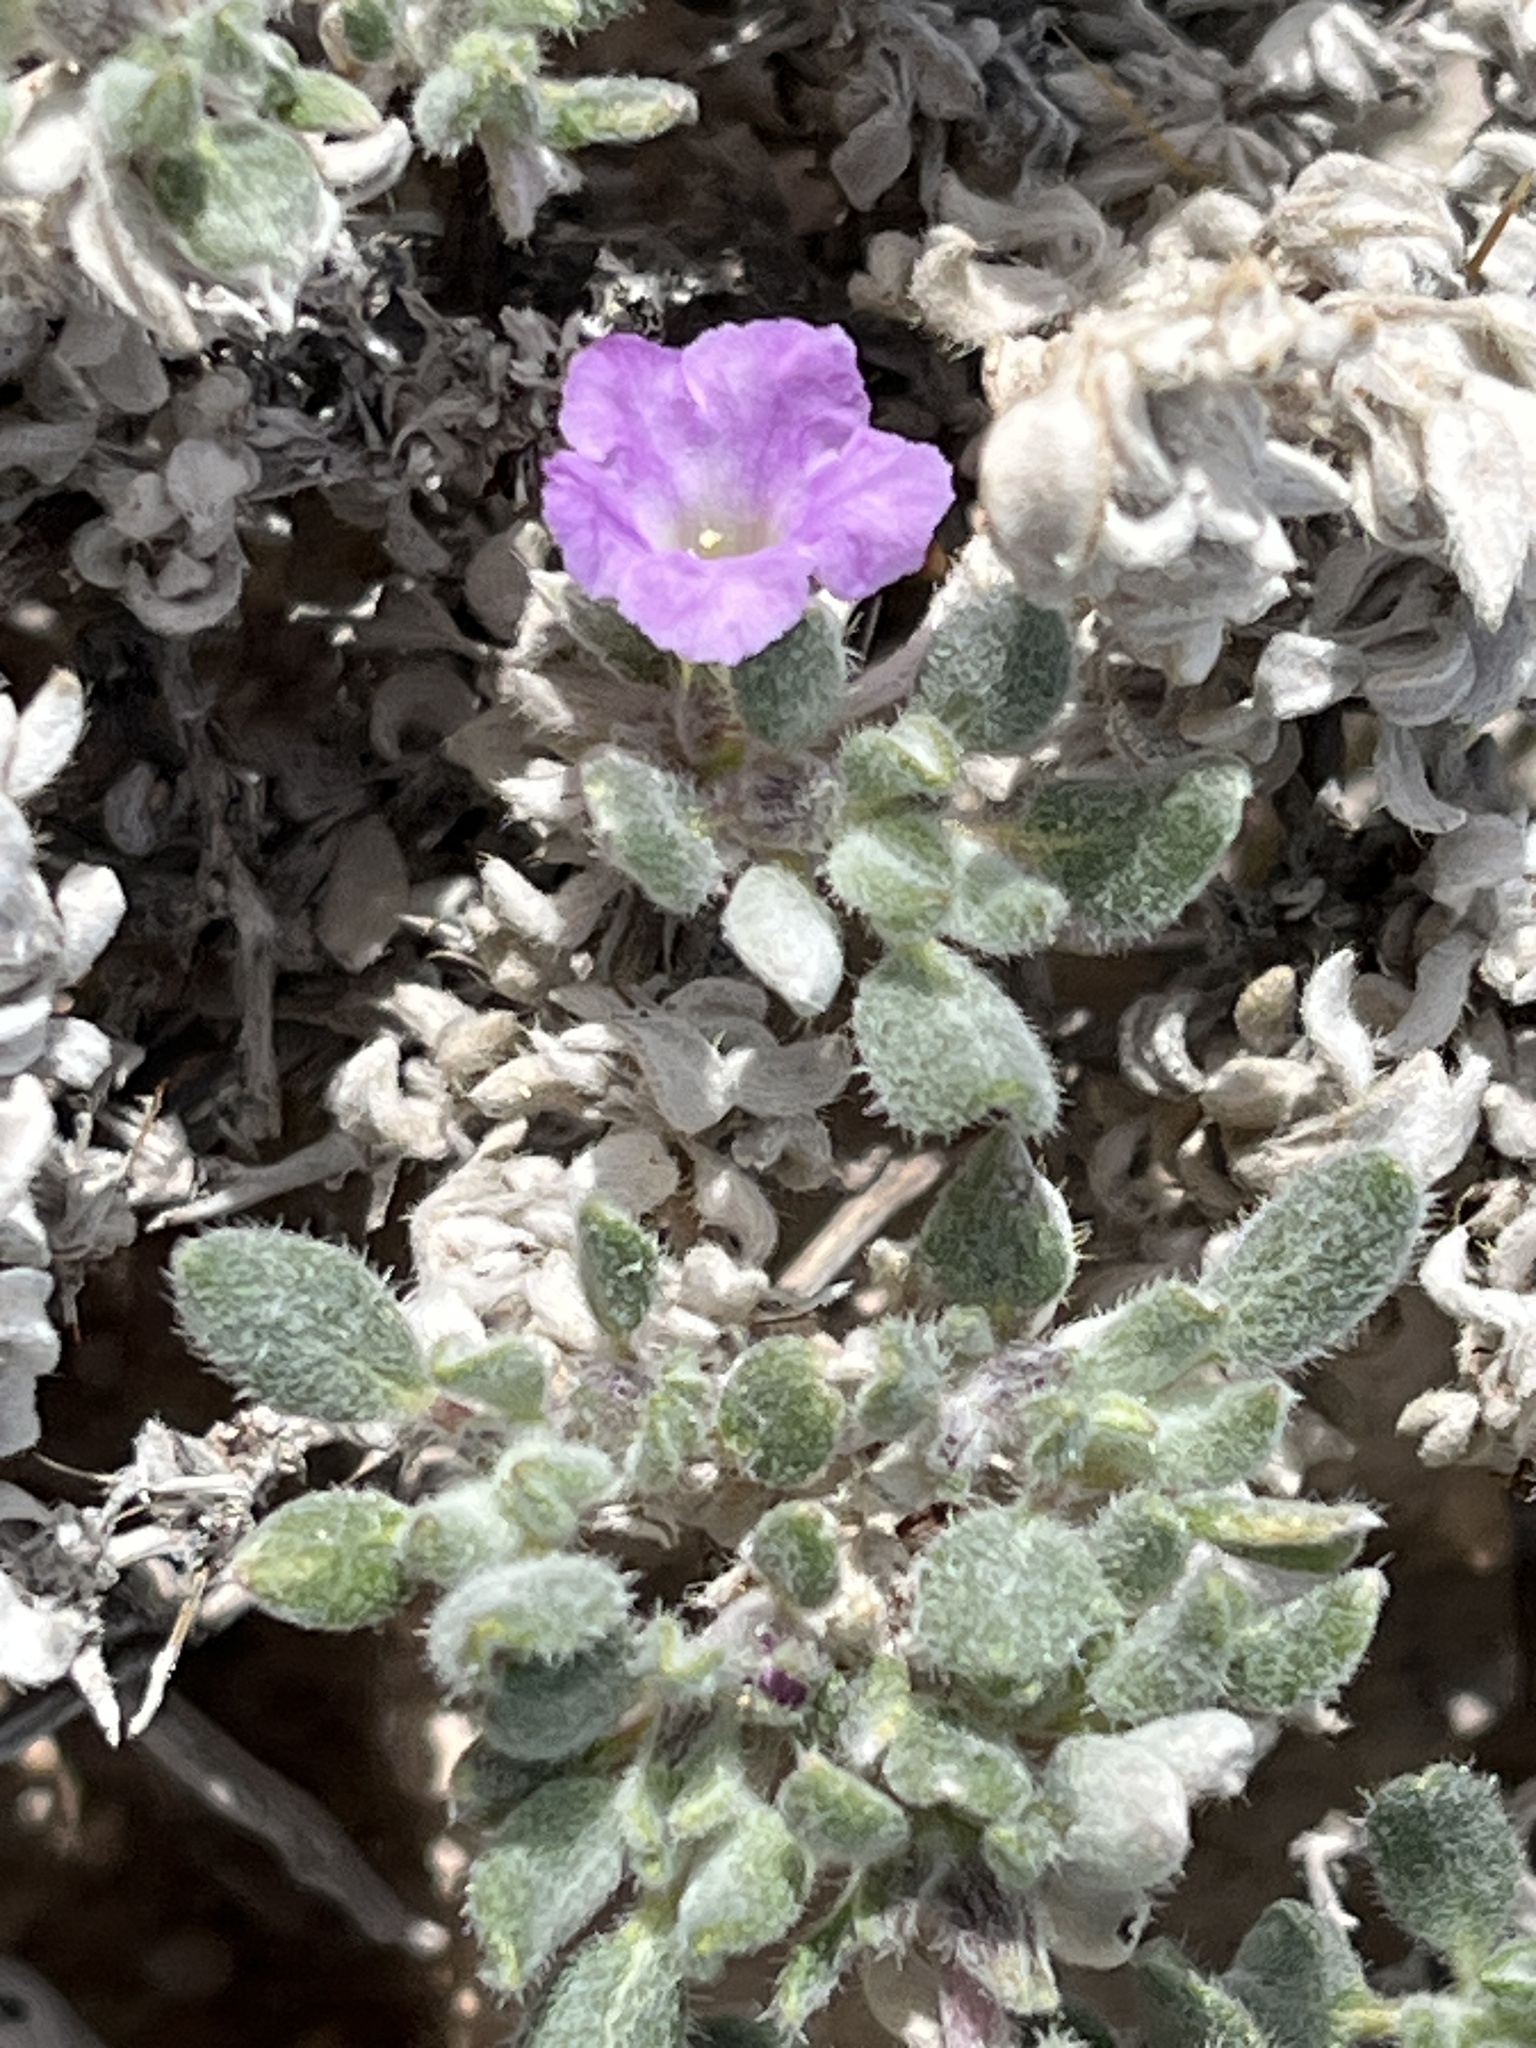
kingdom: Plantae
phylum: Tracheophyta
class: Magnoliopsida
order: Boraginales
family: Ehretiaceae
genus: Tiquilia
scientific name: Tiquilia canescens
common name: Hairy tiquilia
